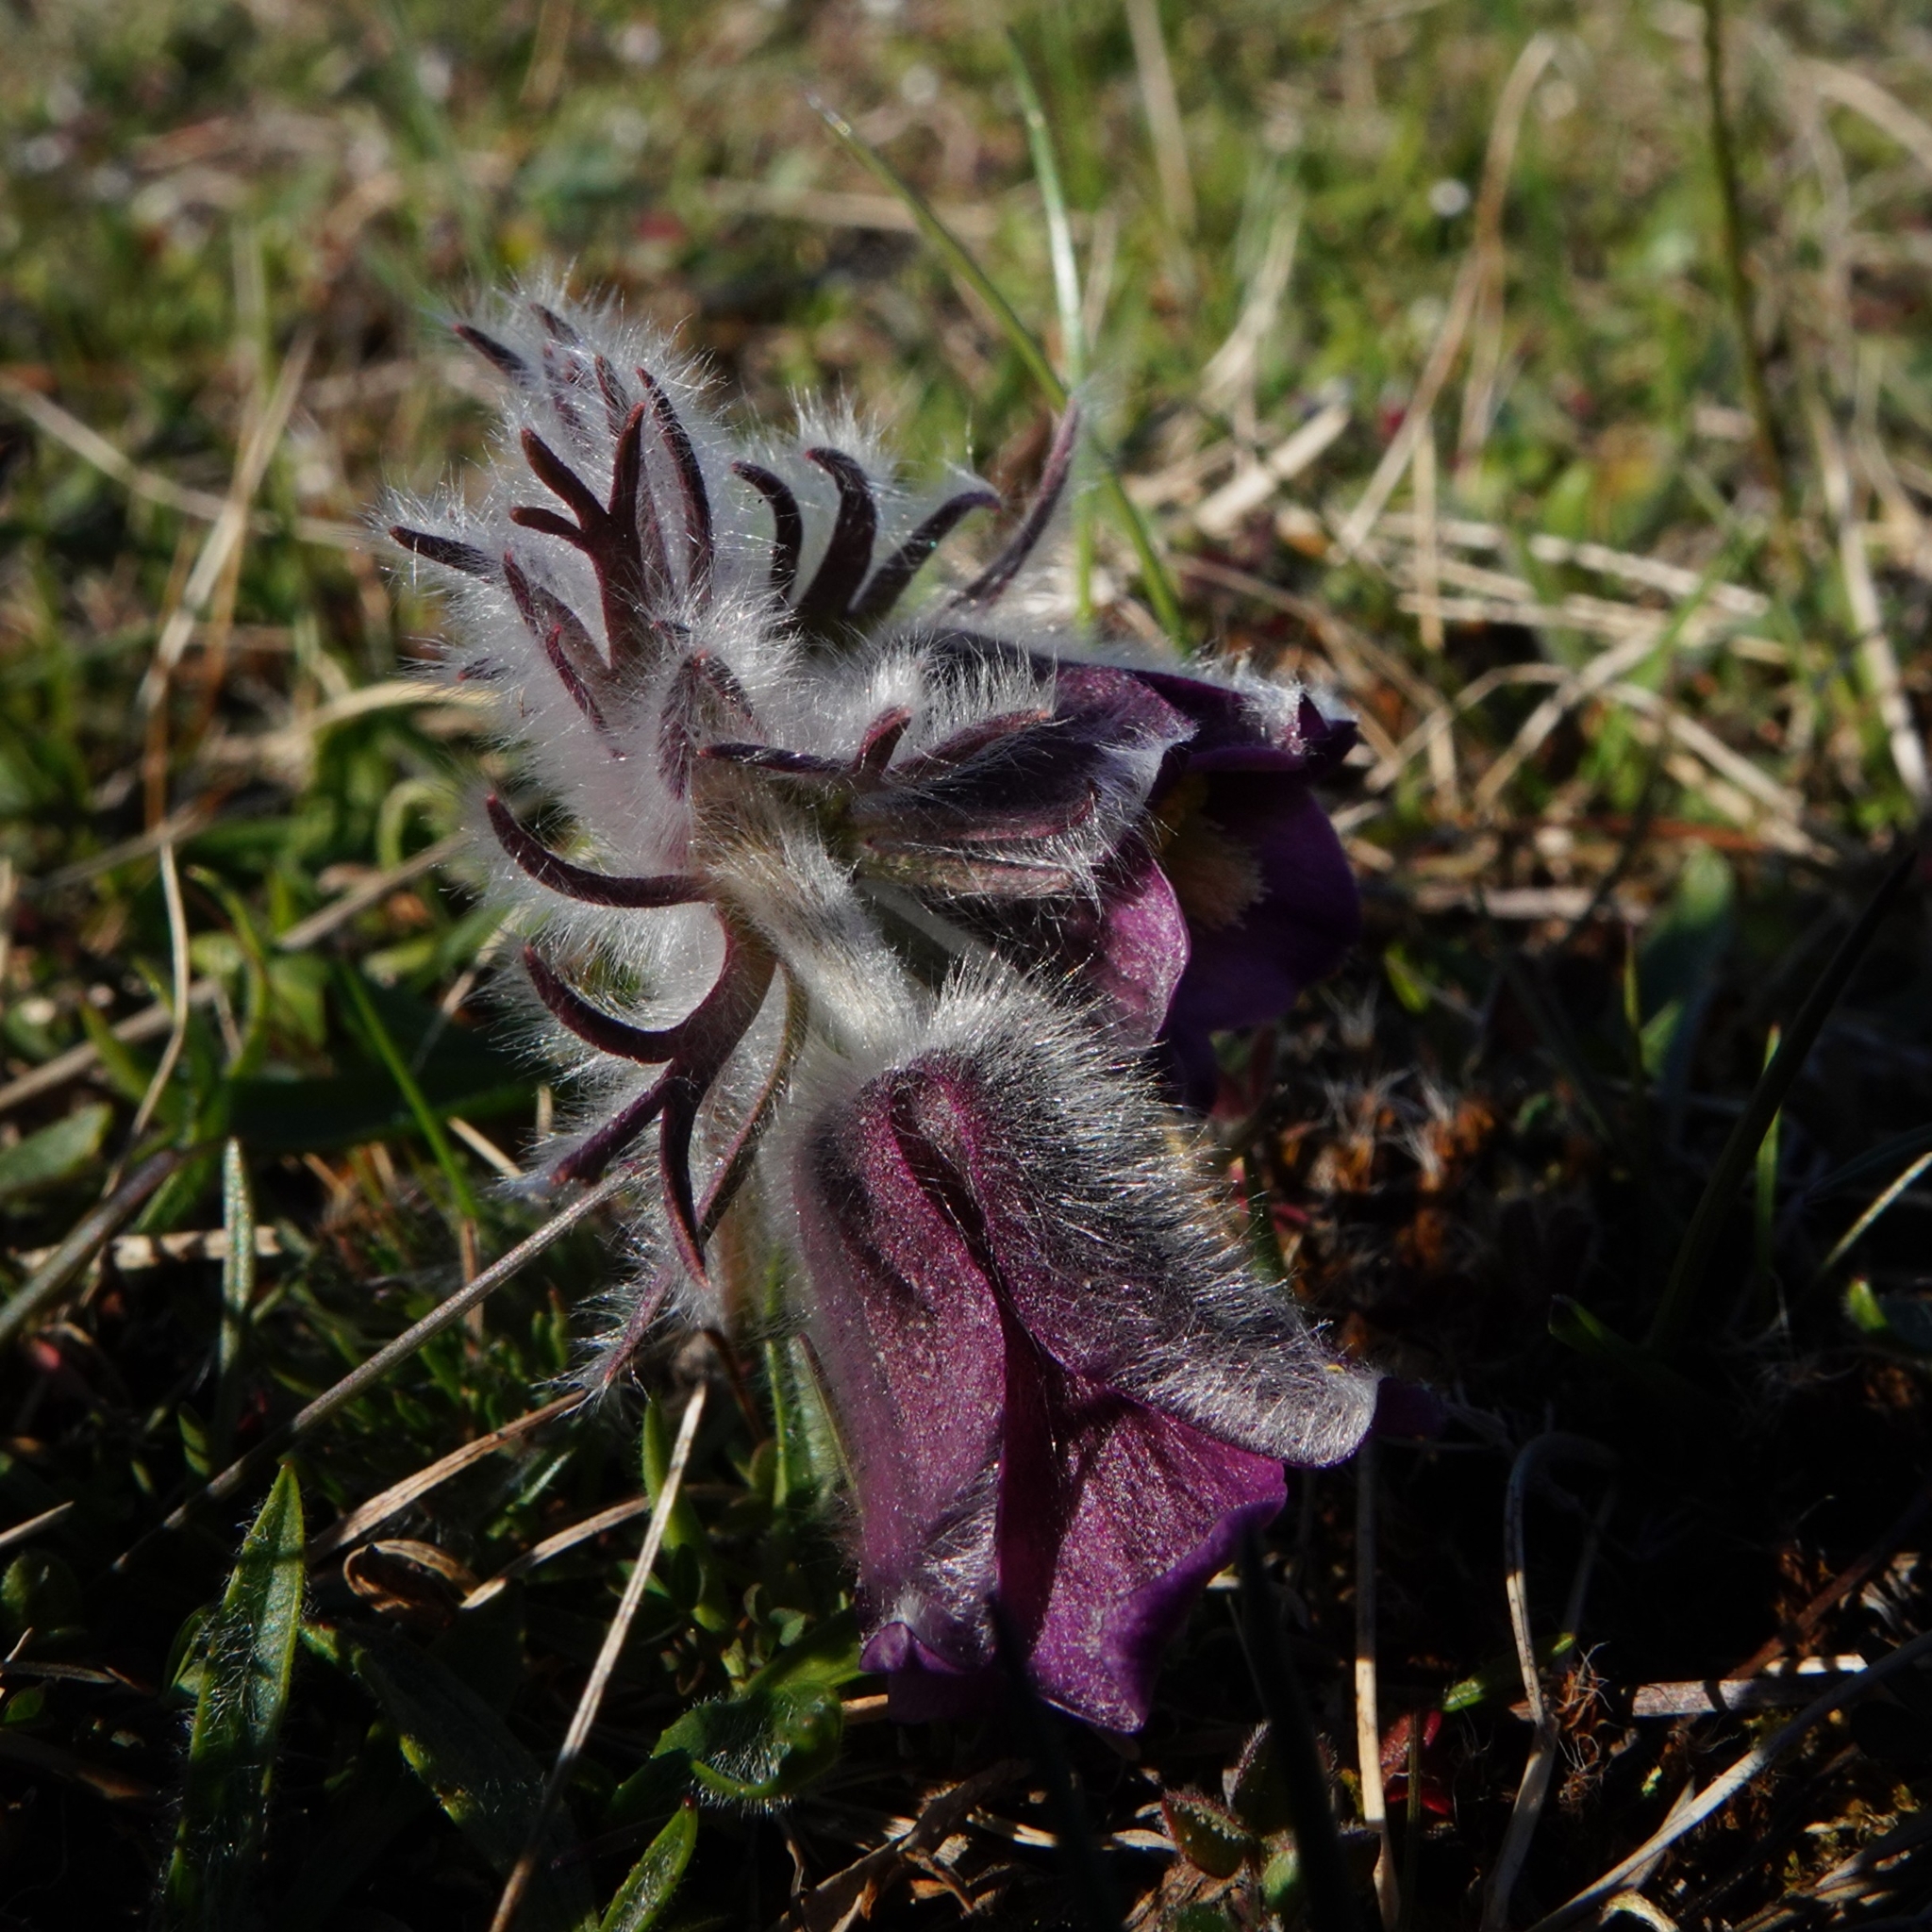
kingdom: Plantae
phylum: Tracheophyta
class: Magnoliopsida
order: Ranunculales
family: Ranunculaceae
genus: Pulsatilla
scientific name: Pulsatilla pratensis
